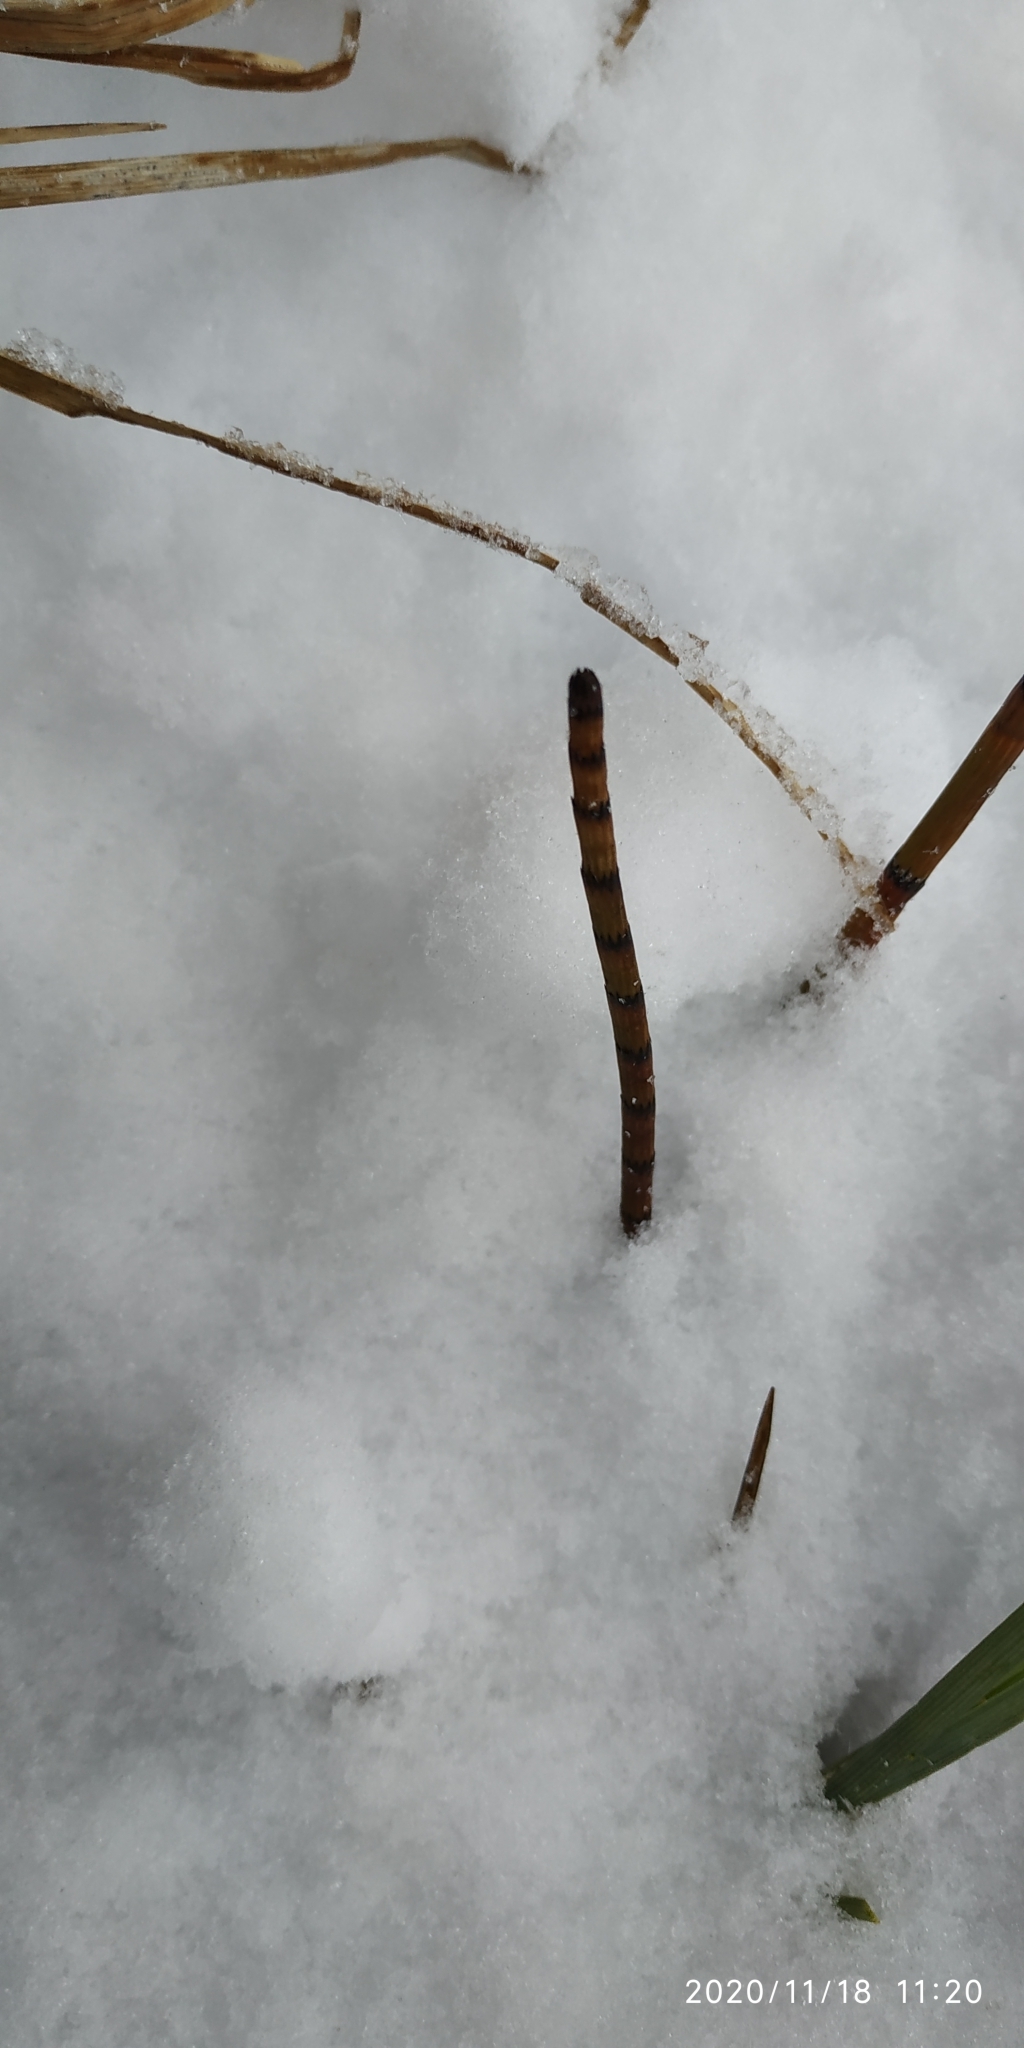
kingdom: Plantae
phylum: Tracheophyta
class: Polypodiopsida
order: Equisetales
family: Equisetaceae
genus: Equisetum
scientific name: Equisetum fluviatile
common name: Water horsetail
